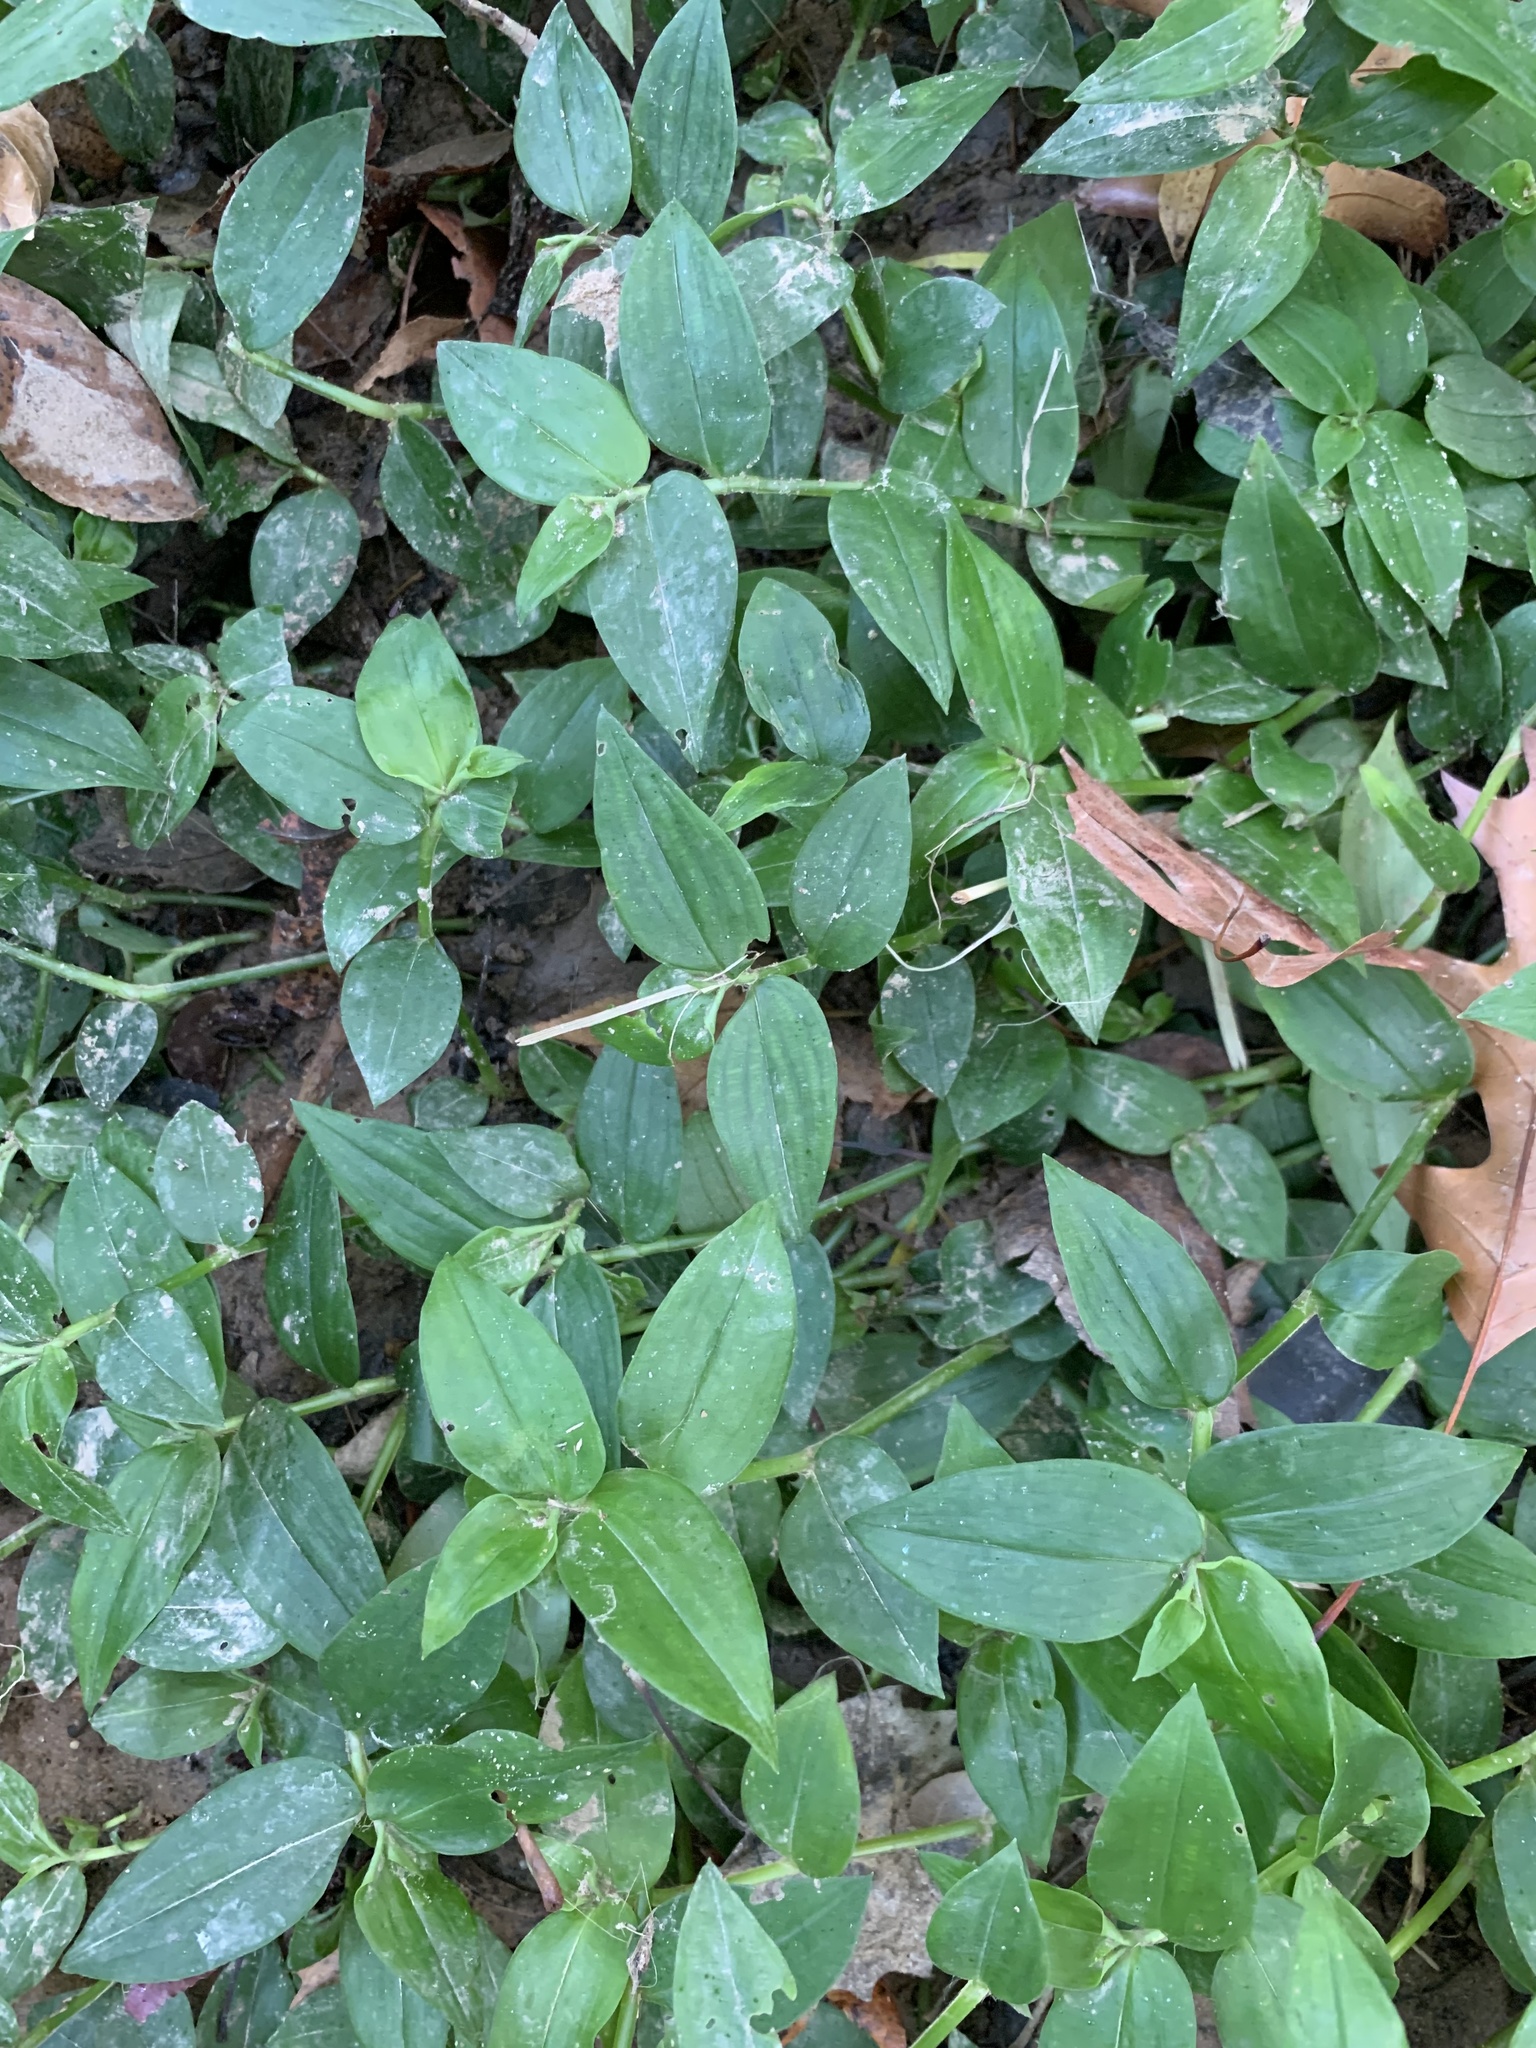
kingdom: Plantae
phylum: Tracheophyta
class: Liliopsida
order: Commelinales
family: Commelinaceae
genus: Tradescantia
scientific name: Tradescantia fluminensis
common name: Wandering-jew
